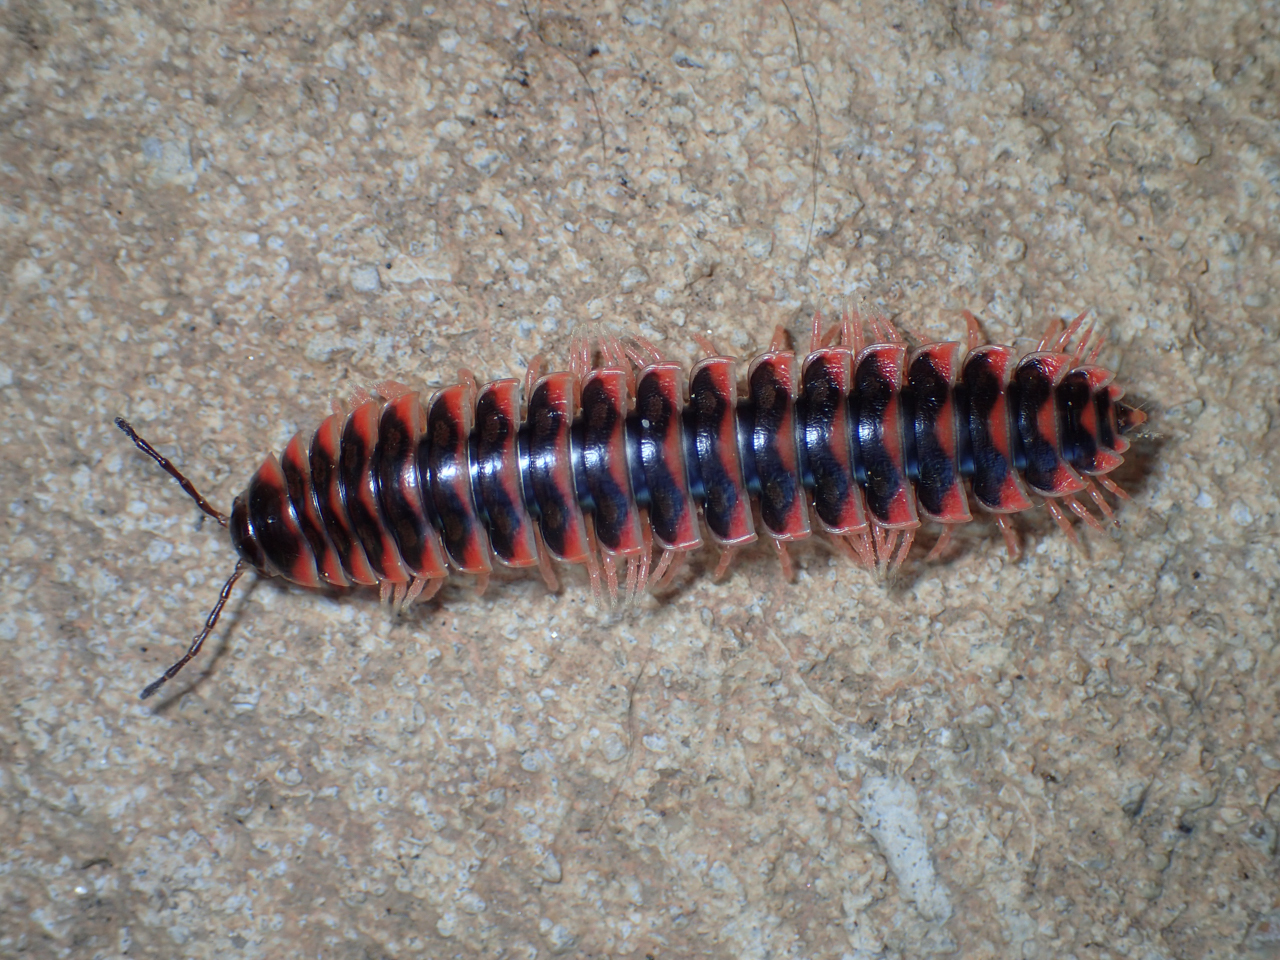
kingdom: Animalia
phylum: Arthropoda
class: Diplopoda
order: Polydesmida
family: Xystodesmidae
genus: Cherokia
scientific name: Cherokia georgiana
